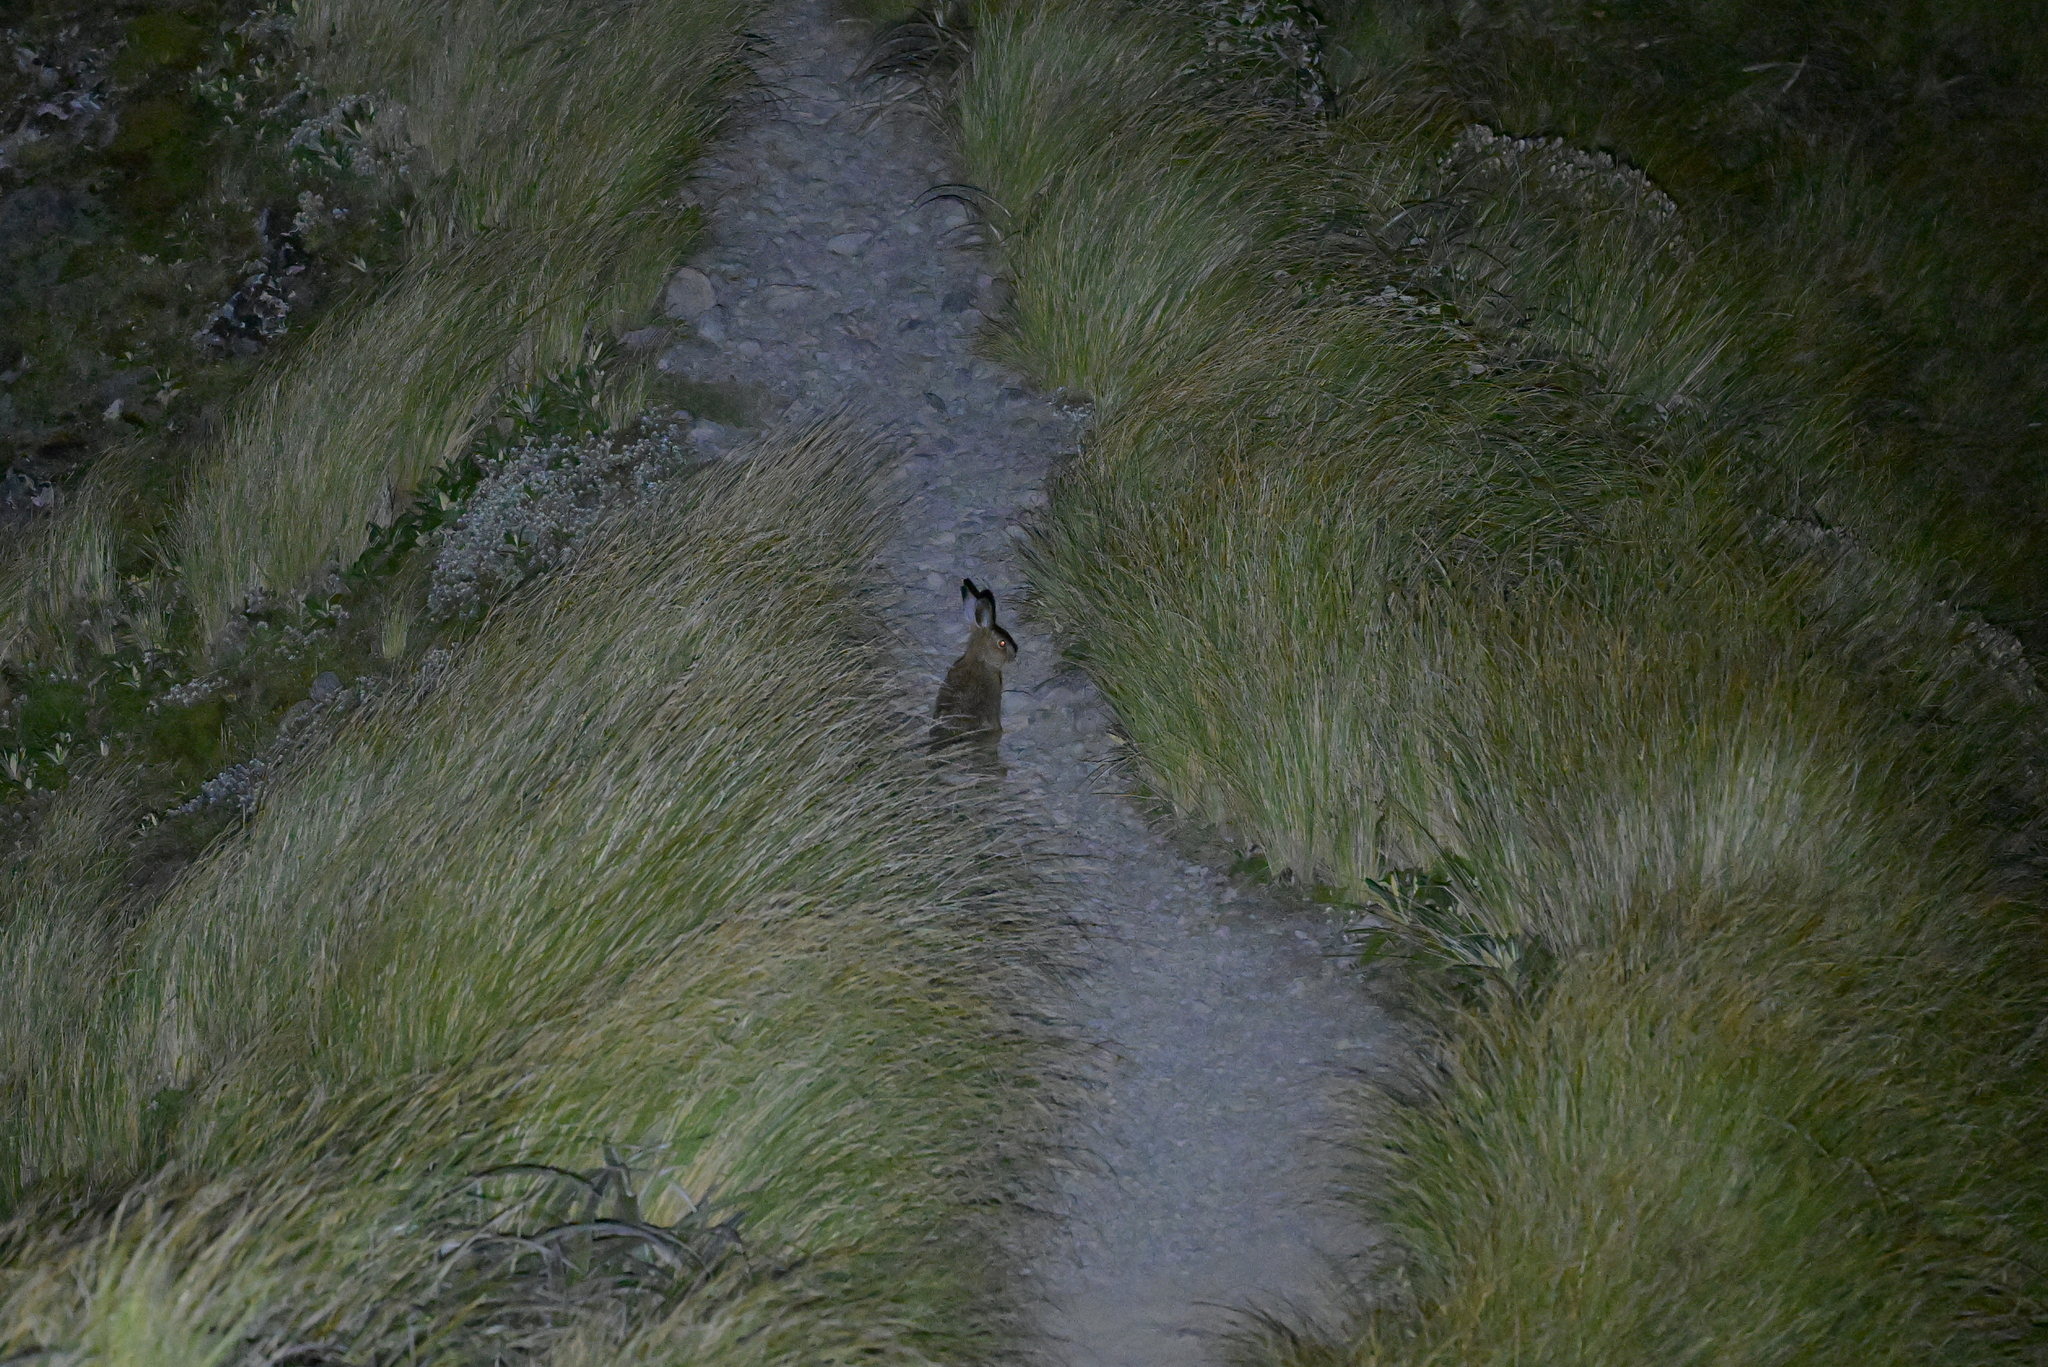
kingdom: Animalia
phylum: Chordata
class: Mammalia
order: Lagomorpha
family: Leporidae
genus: Lepus
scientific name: Lepus europaeus
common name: European hare
